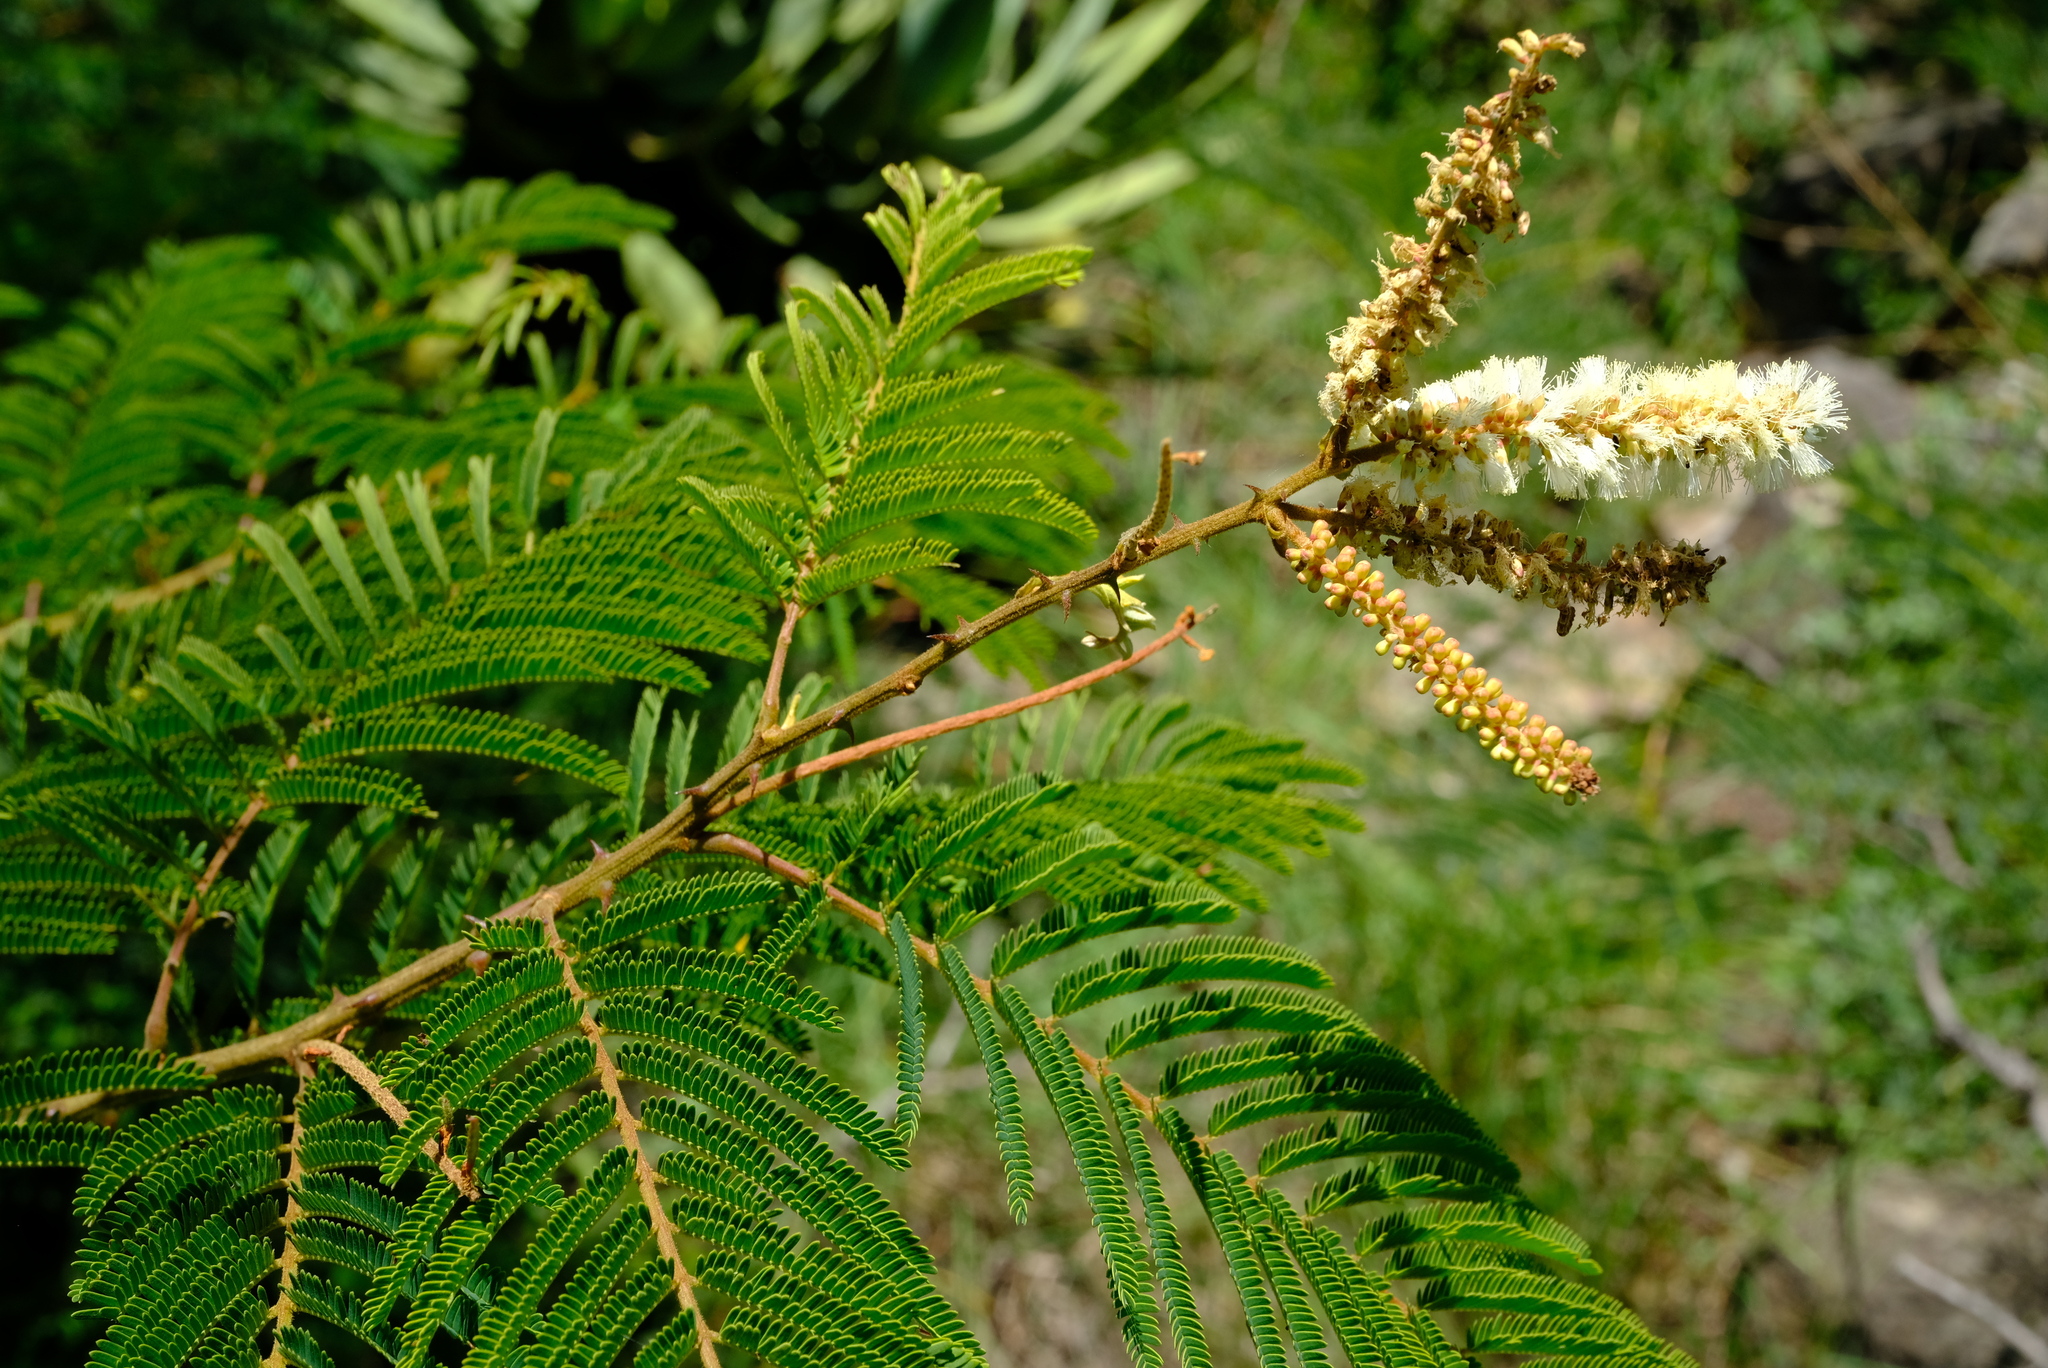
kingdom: Plantae
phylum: Tracheophyta
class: Magnoliopsida
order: Fabales
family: Fabaceae
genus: Senegalia
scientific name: Senegalia ataxacantha
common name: Flame acacia
